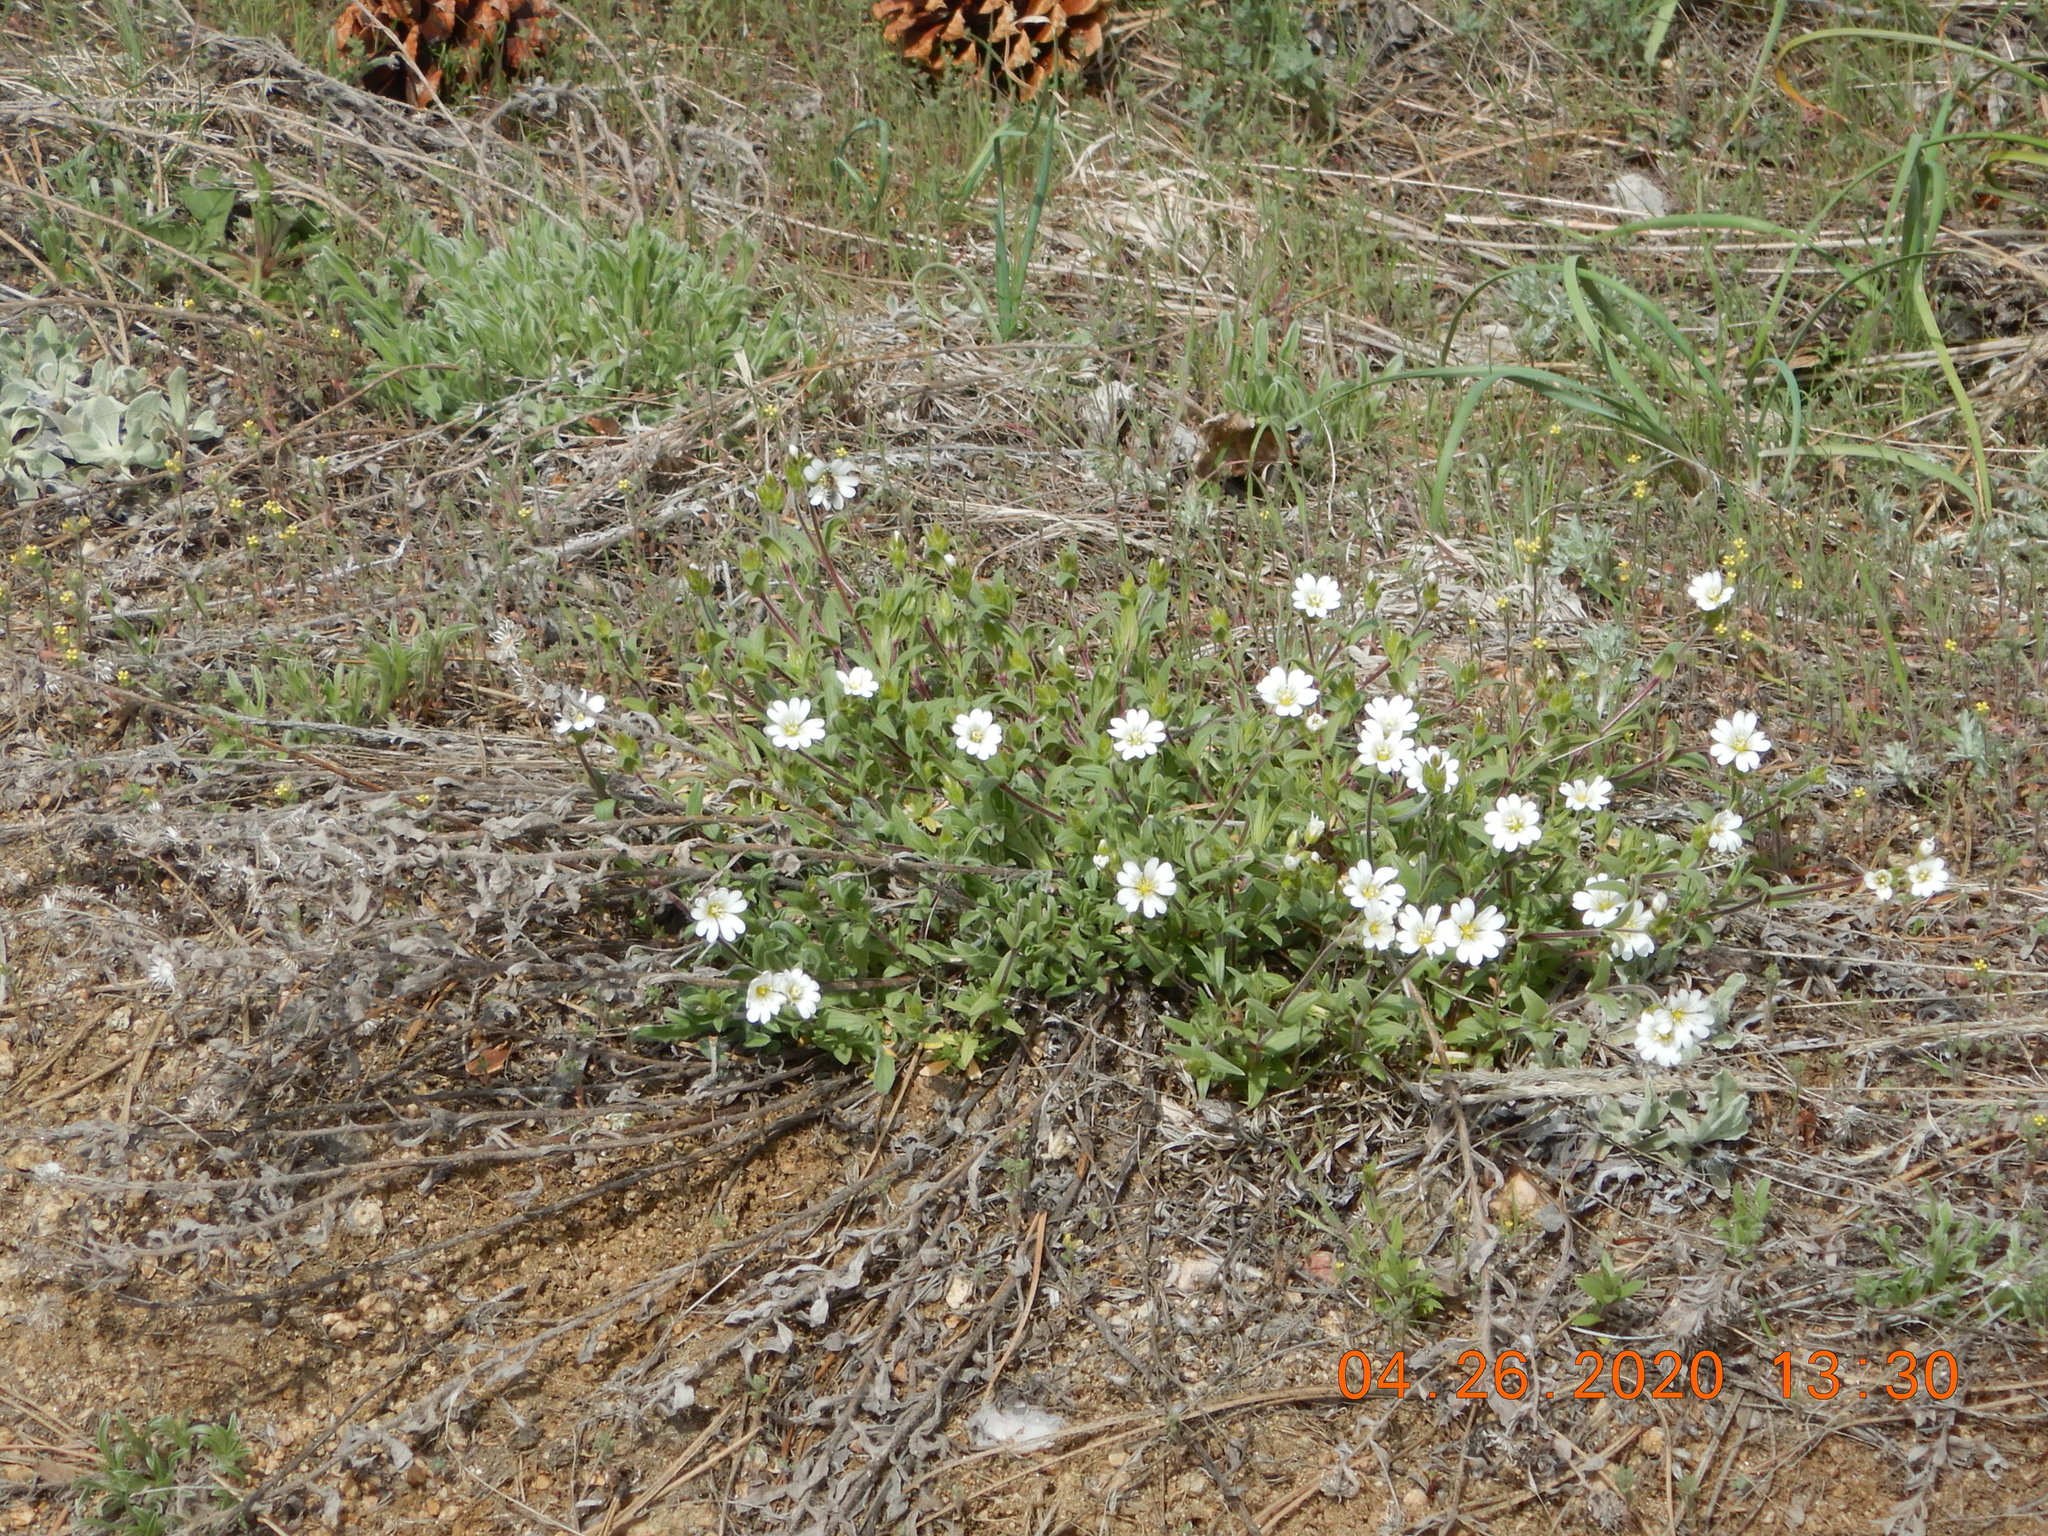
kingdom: Plantae
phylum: Tracheophyta
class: Magnoliopsida
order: Caryophyllales
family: Caryophyllaceae
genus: Cerastium
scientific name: Cerastium arvense
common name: Field mouse-ear
